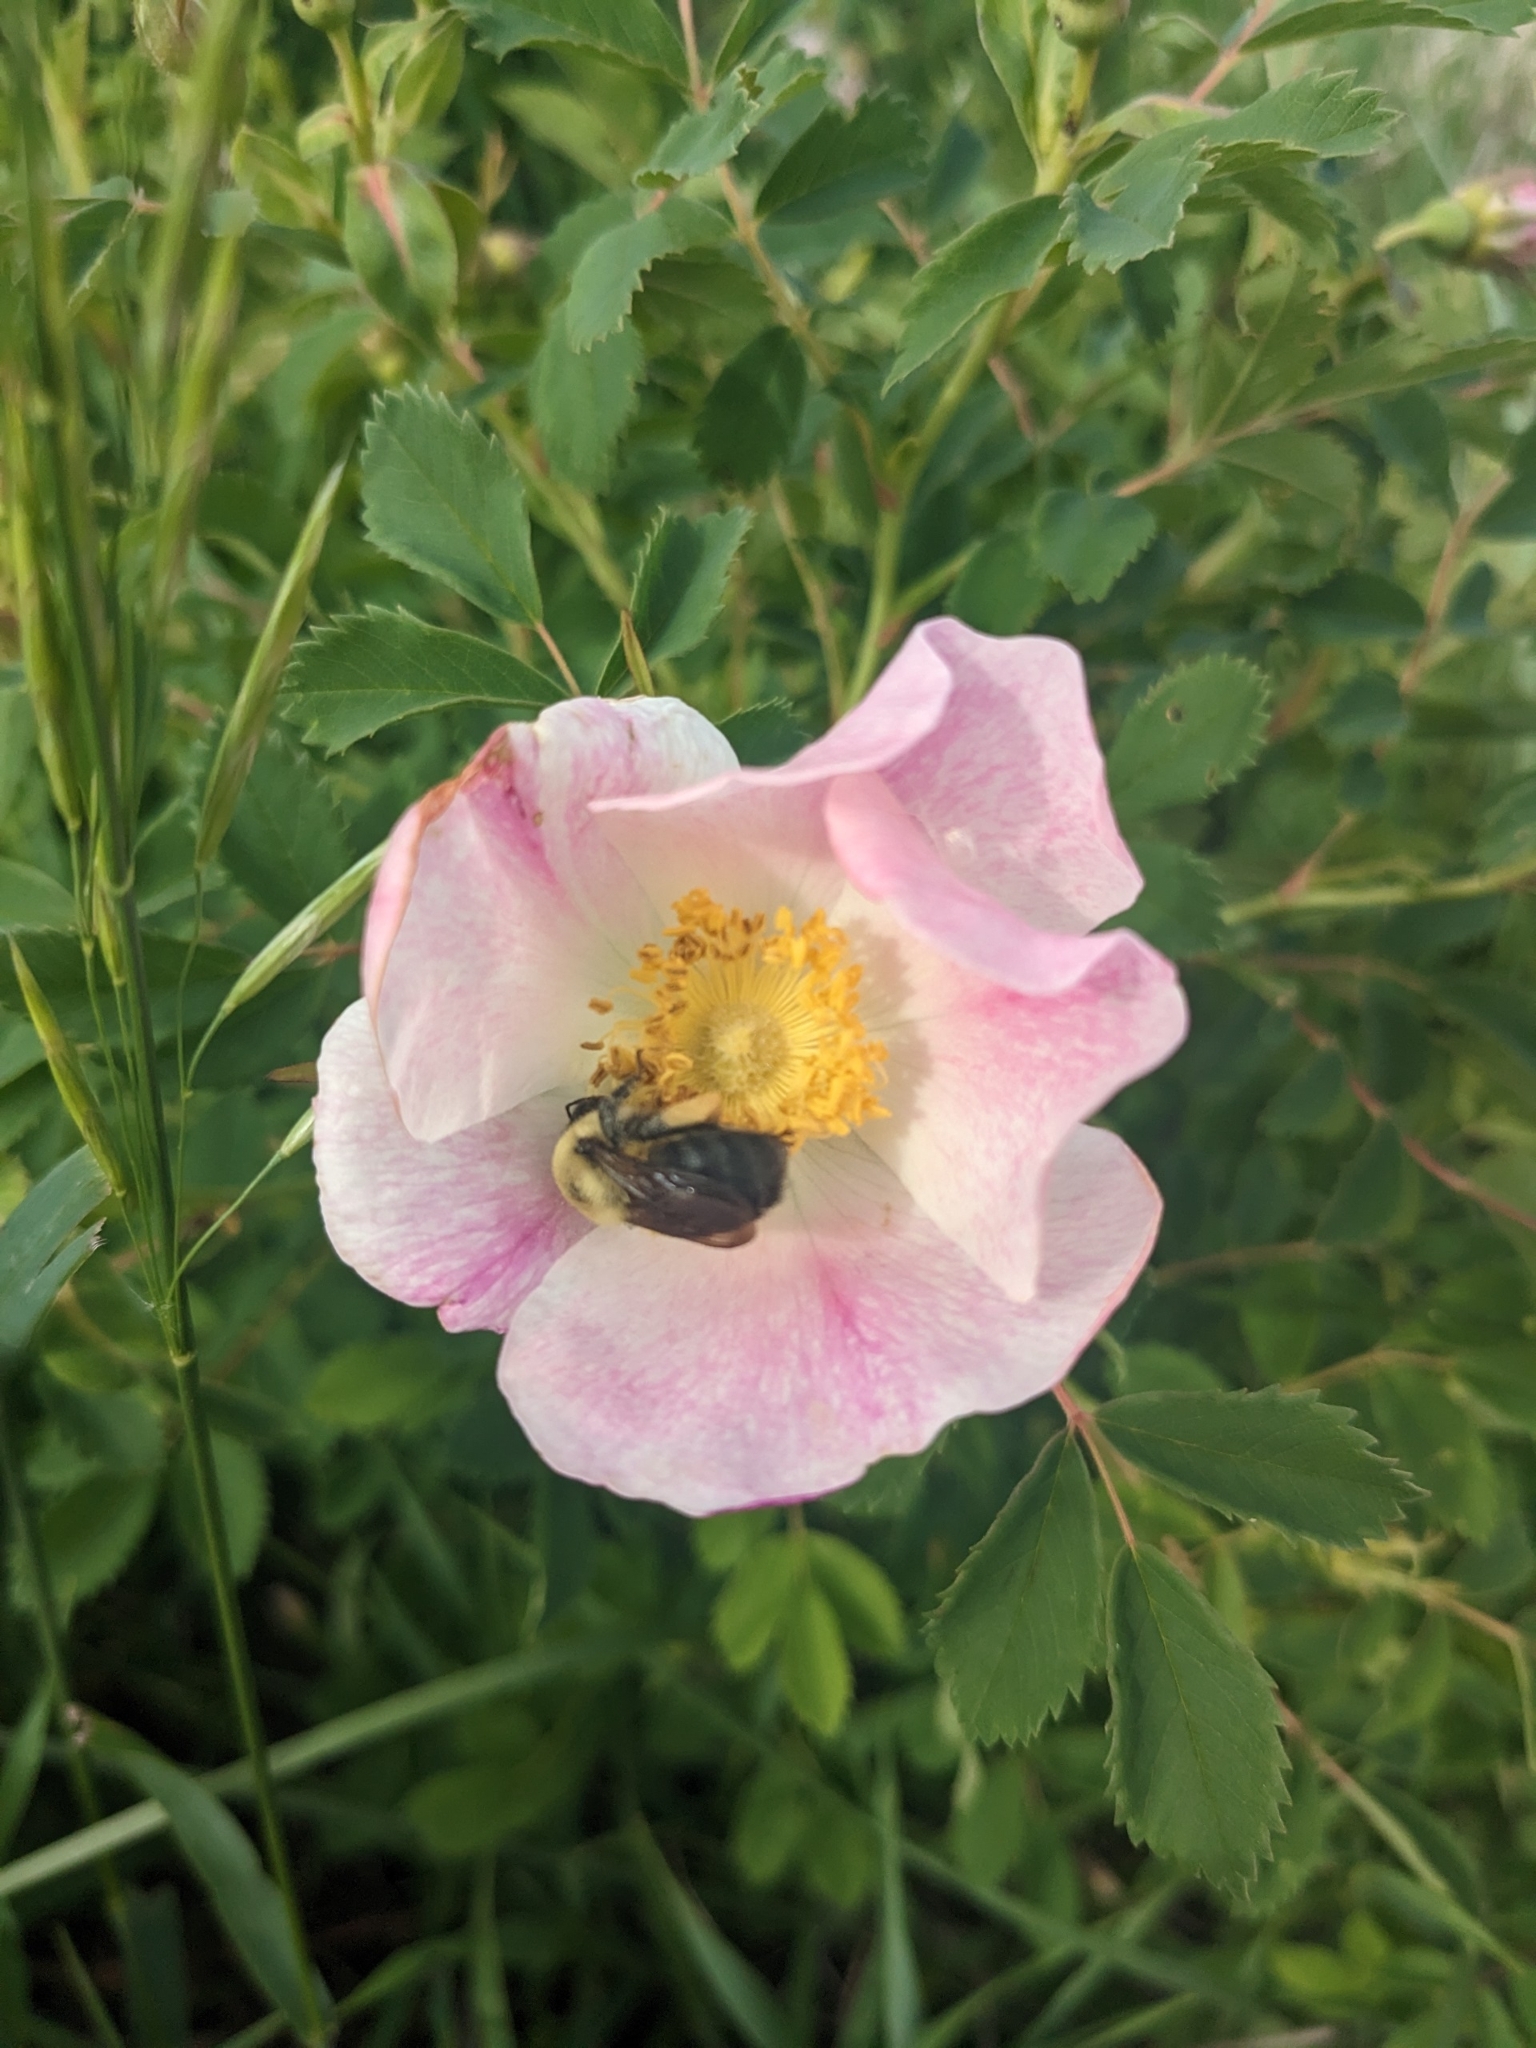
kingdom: Animalia
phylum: Arthropoda
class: Insecta
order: Hymenoptera
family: Apidae
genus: Bombus
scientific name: Bombus griseocollis
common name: Brown-belted bumble bee
